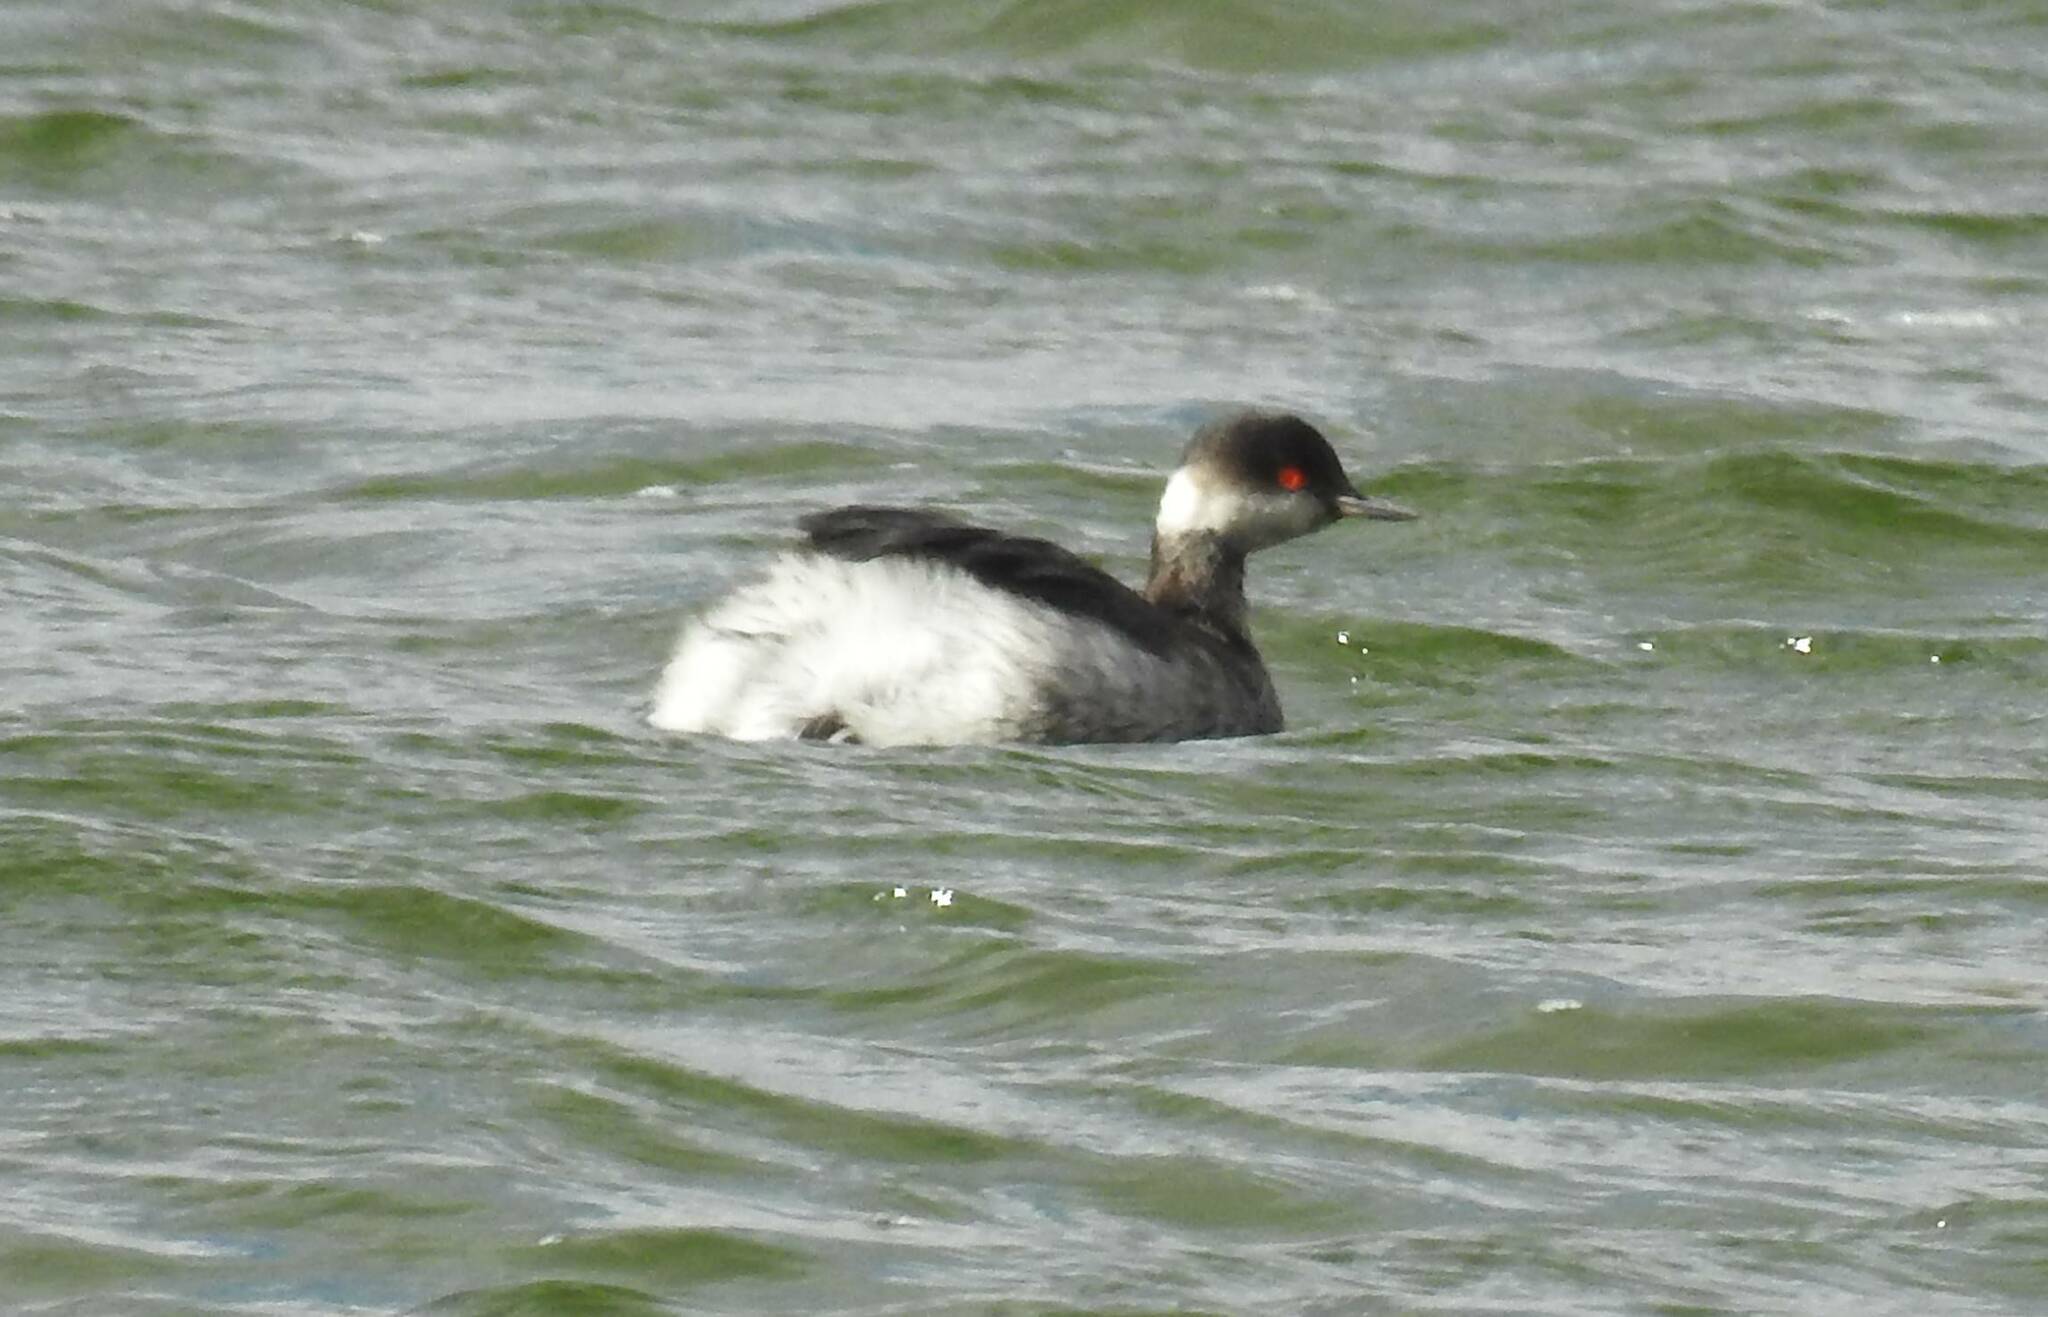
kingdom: Animalia
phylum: Chordata
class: Aves
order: Podicipediformes
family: Podicipedidae
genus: Podiceps
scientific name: Podiceps nigricollis
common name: Black-necked grebe
